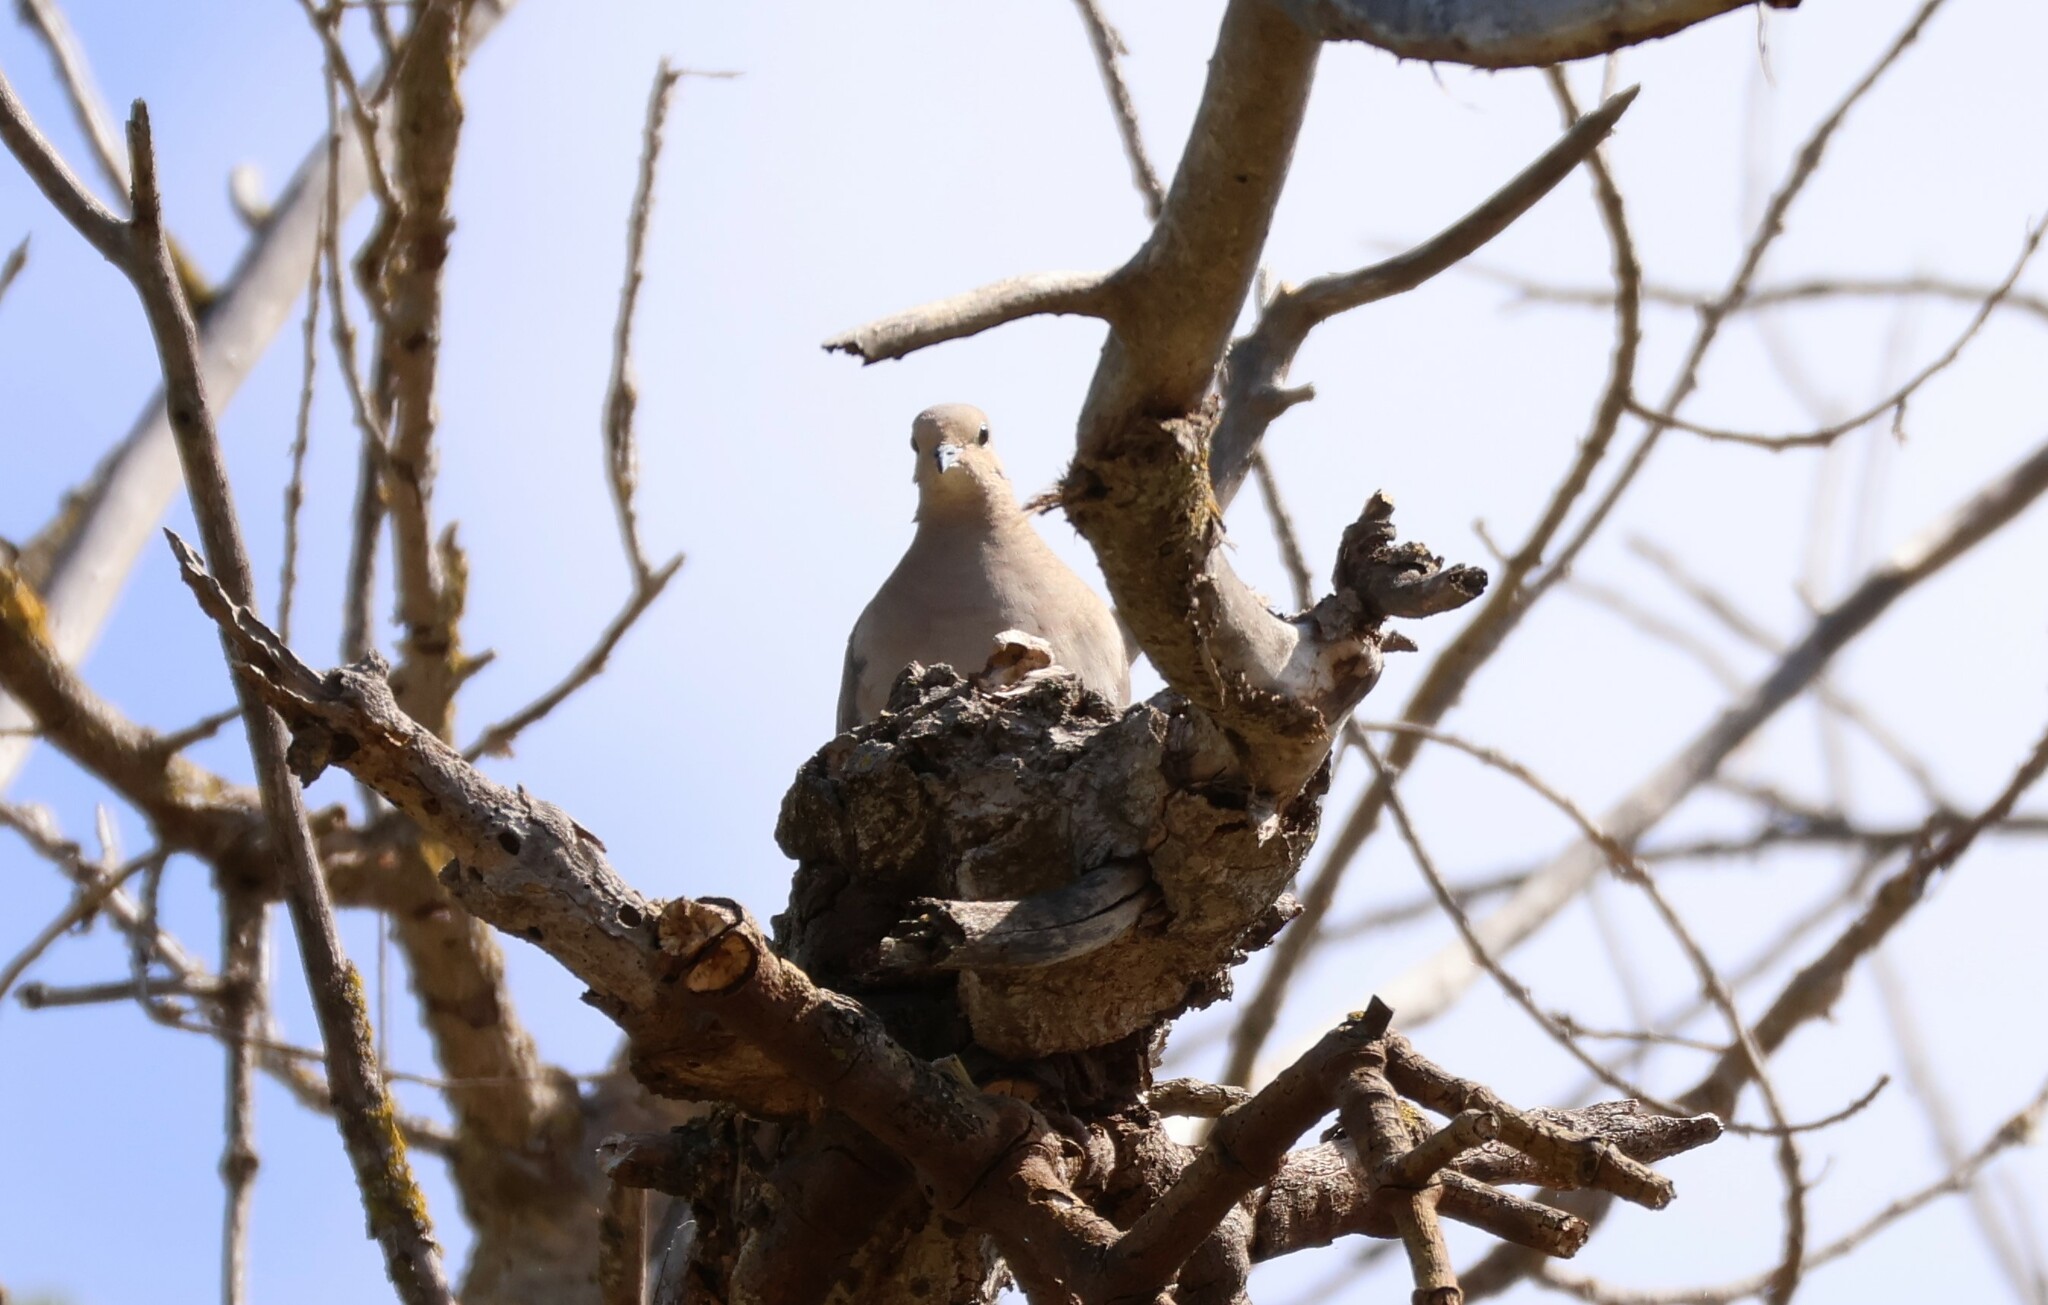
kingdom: Animalia
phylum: Chordata
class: Aves
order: Columbiformes
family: Columbidae
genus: Zenaida
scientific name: Zenaida macroura
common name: Mourning dove
